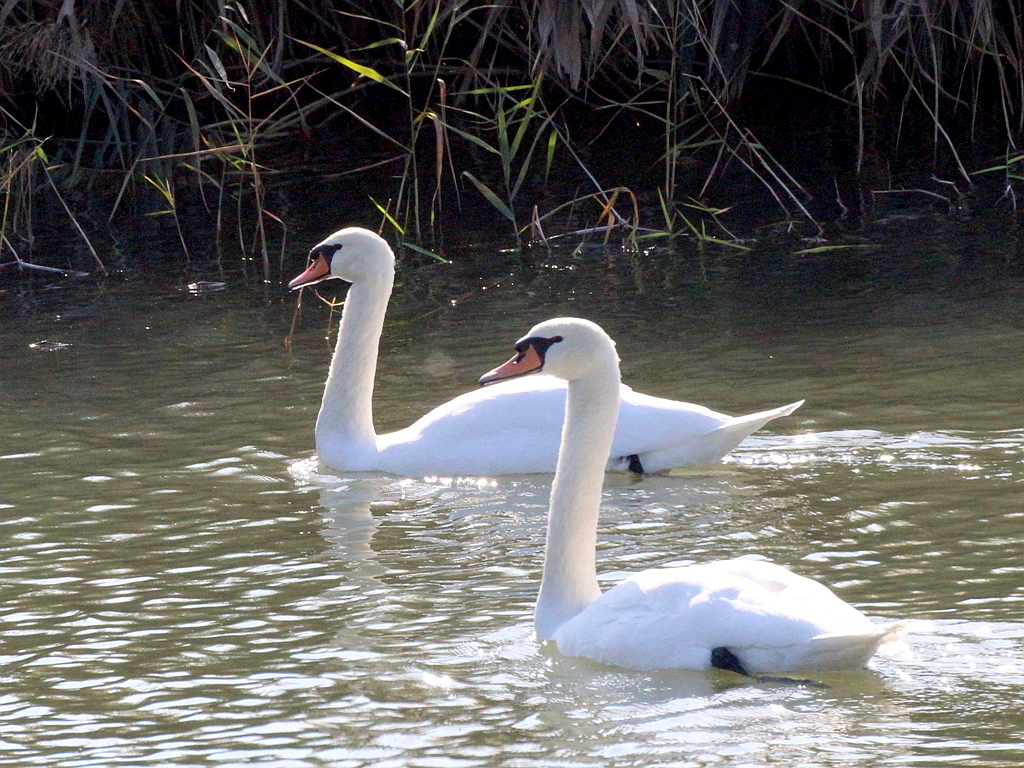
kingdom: Animalia
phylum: Chordata
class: Aves
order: Anseriformes
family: Anatidae
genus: Cygnus
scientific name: Cygnus olor
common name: Mute swan
